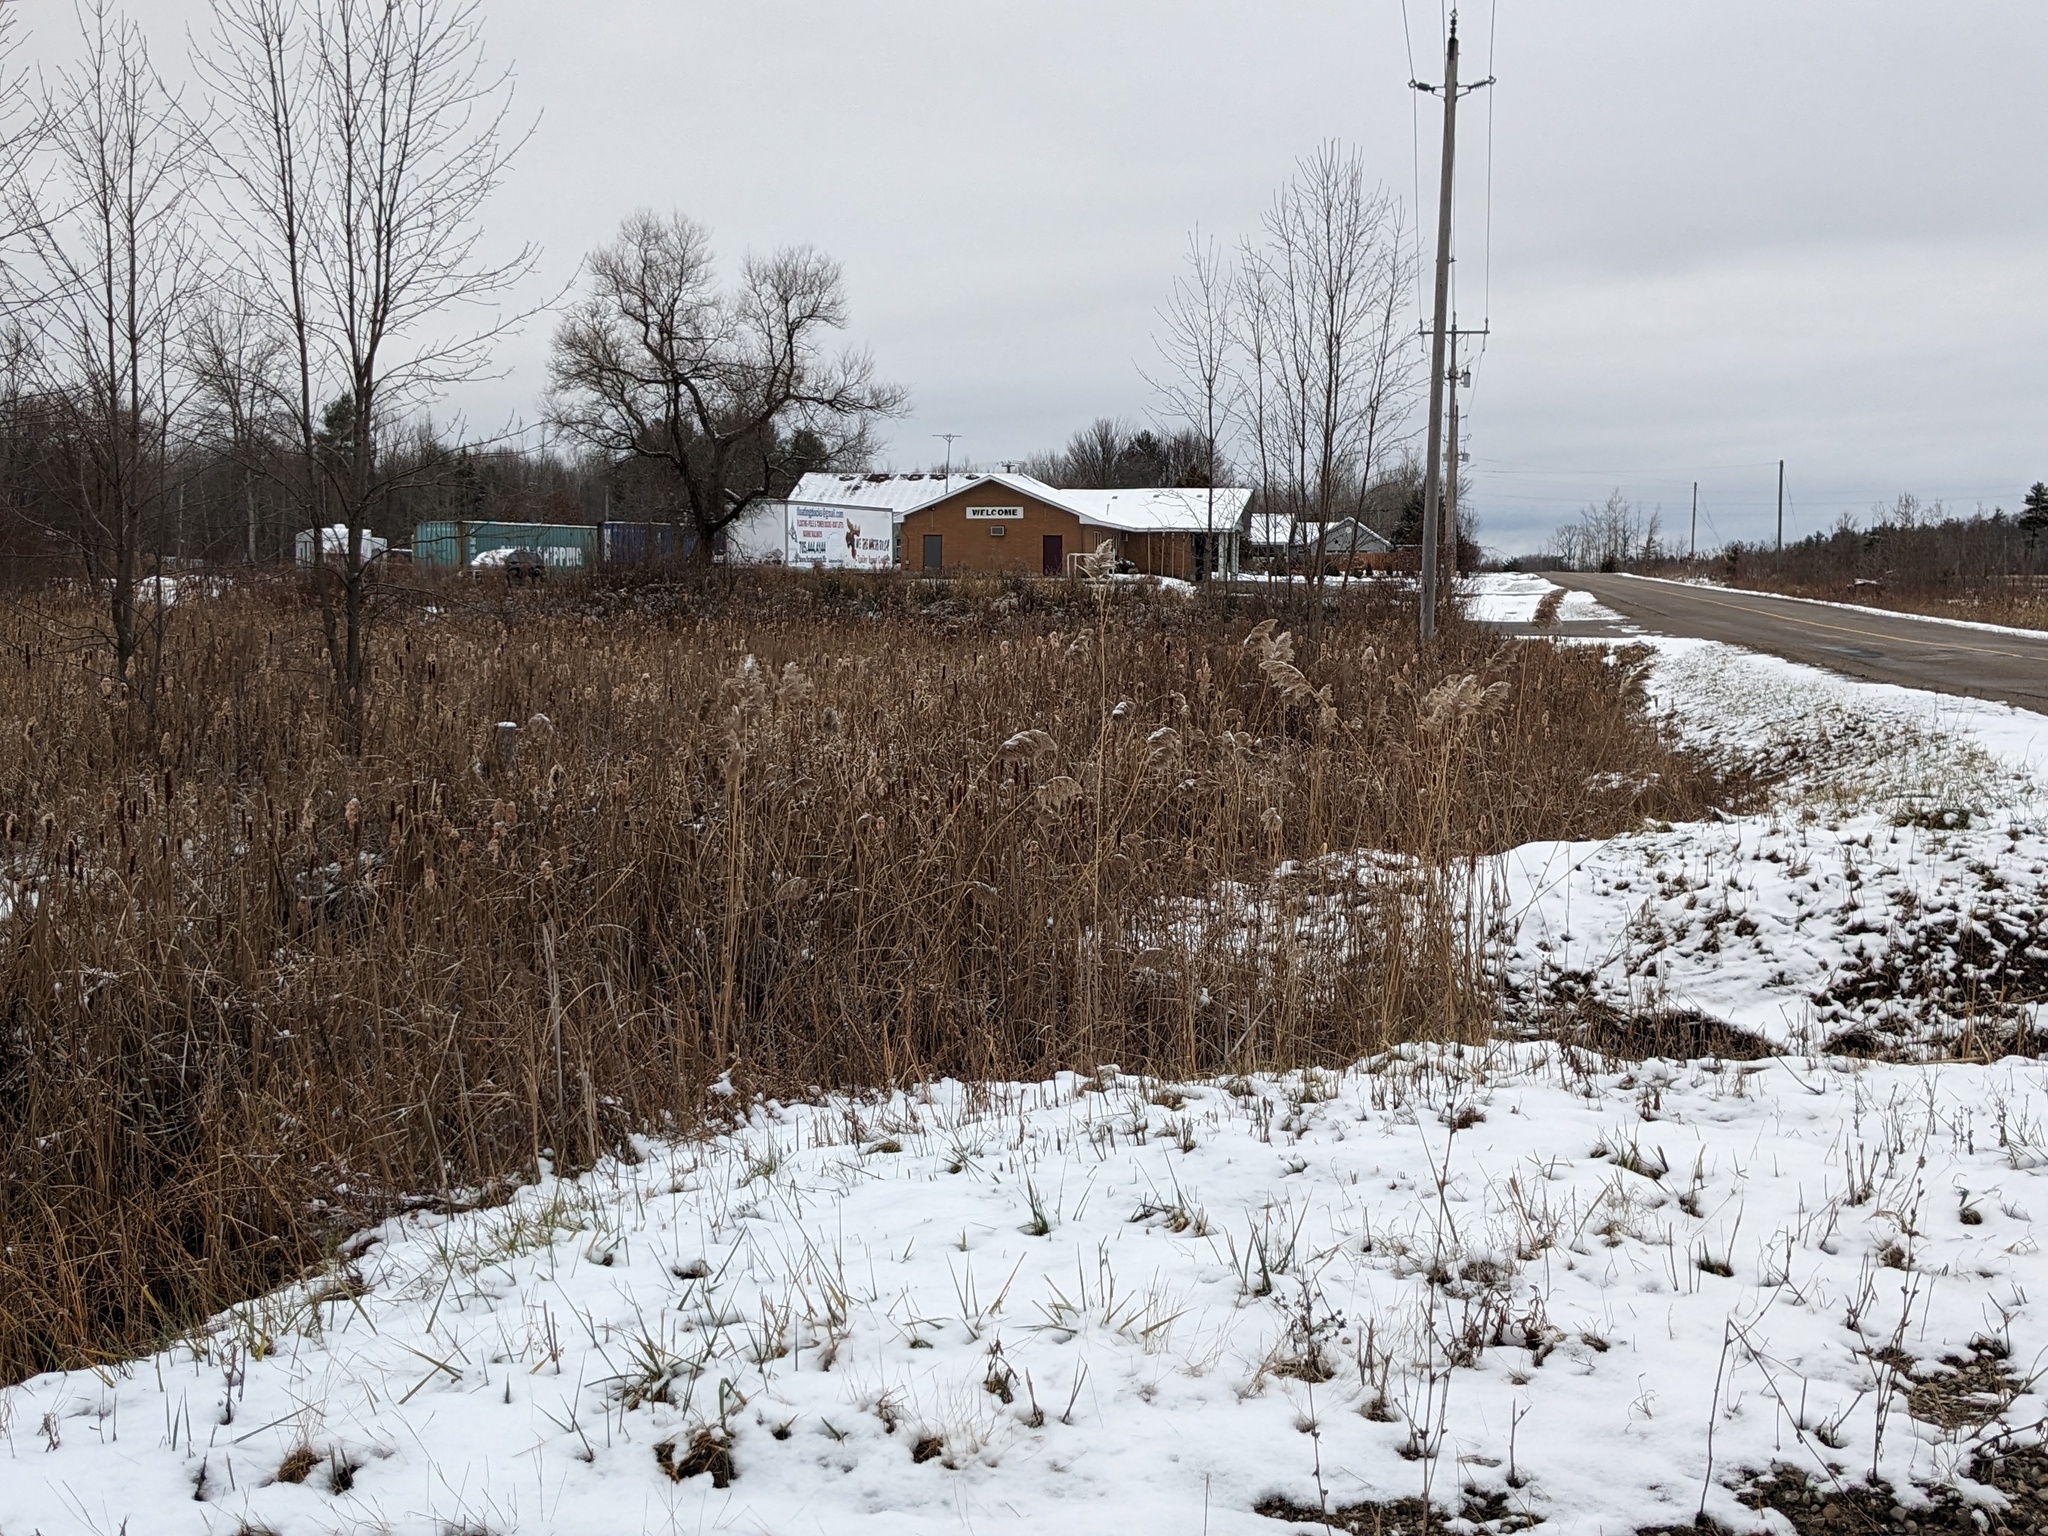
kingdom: Plantae
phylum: Tracheophyta
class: Liliopsida
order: Poales
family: Poaceae
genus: Phragmites
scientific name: Phragmites australis
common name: Common reed
